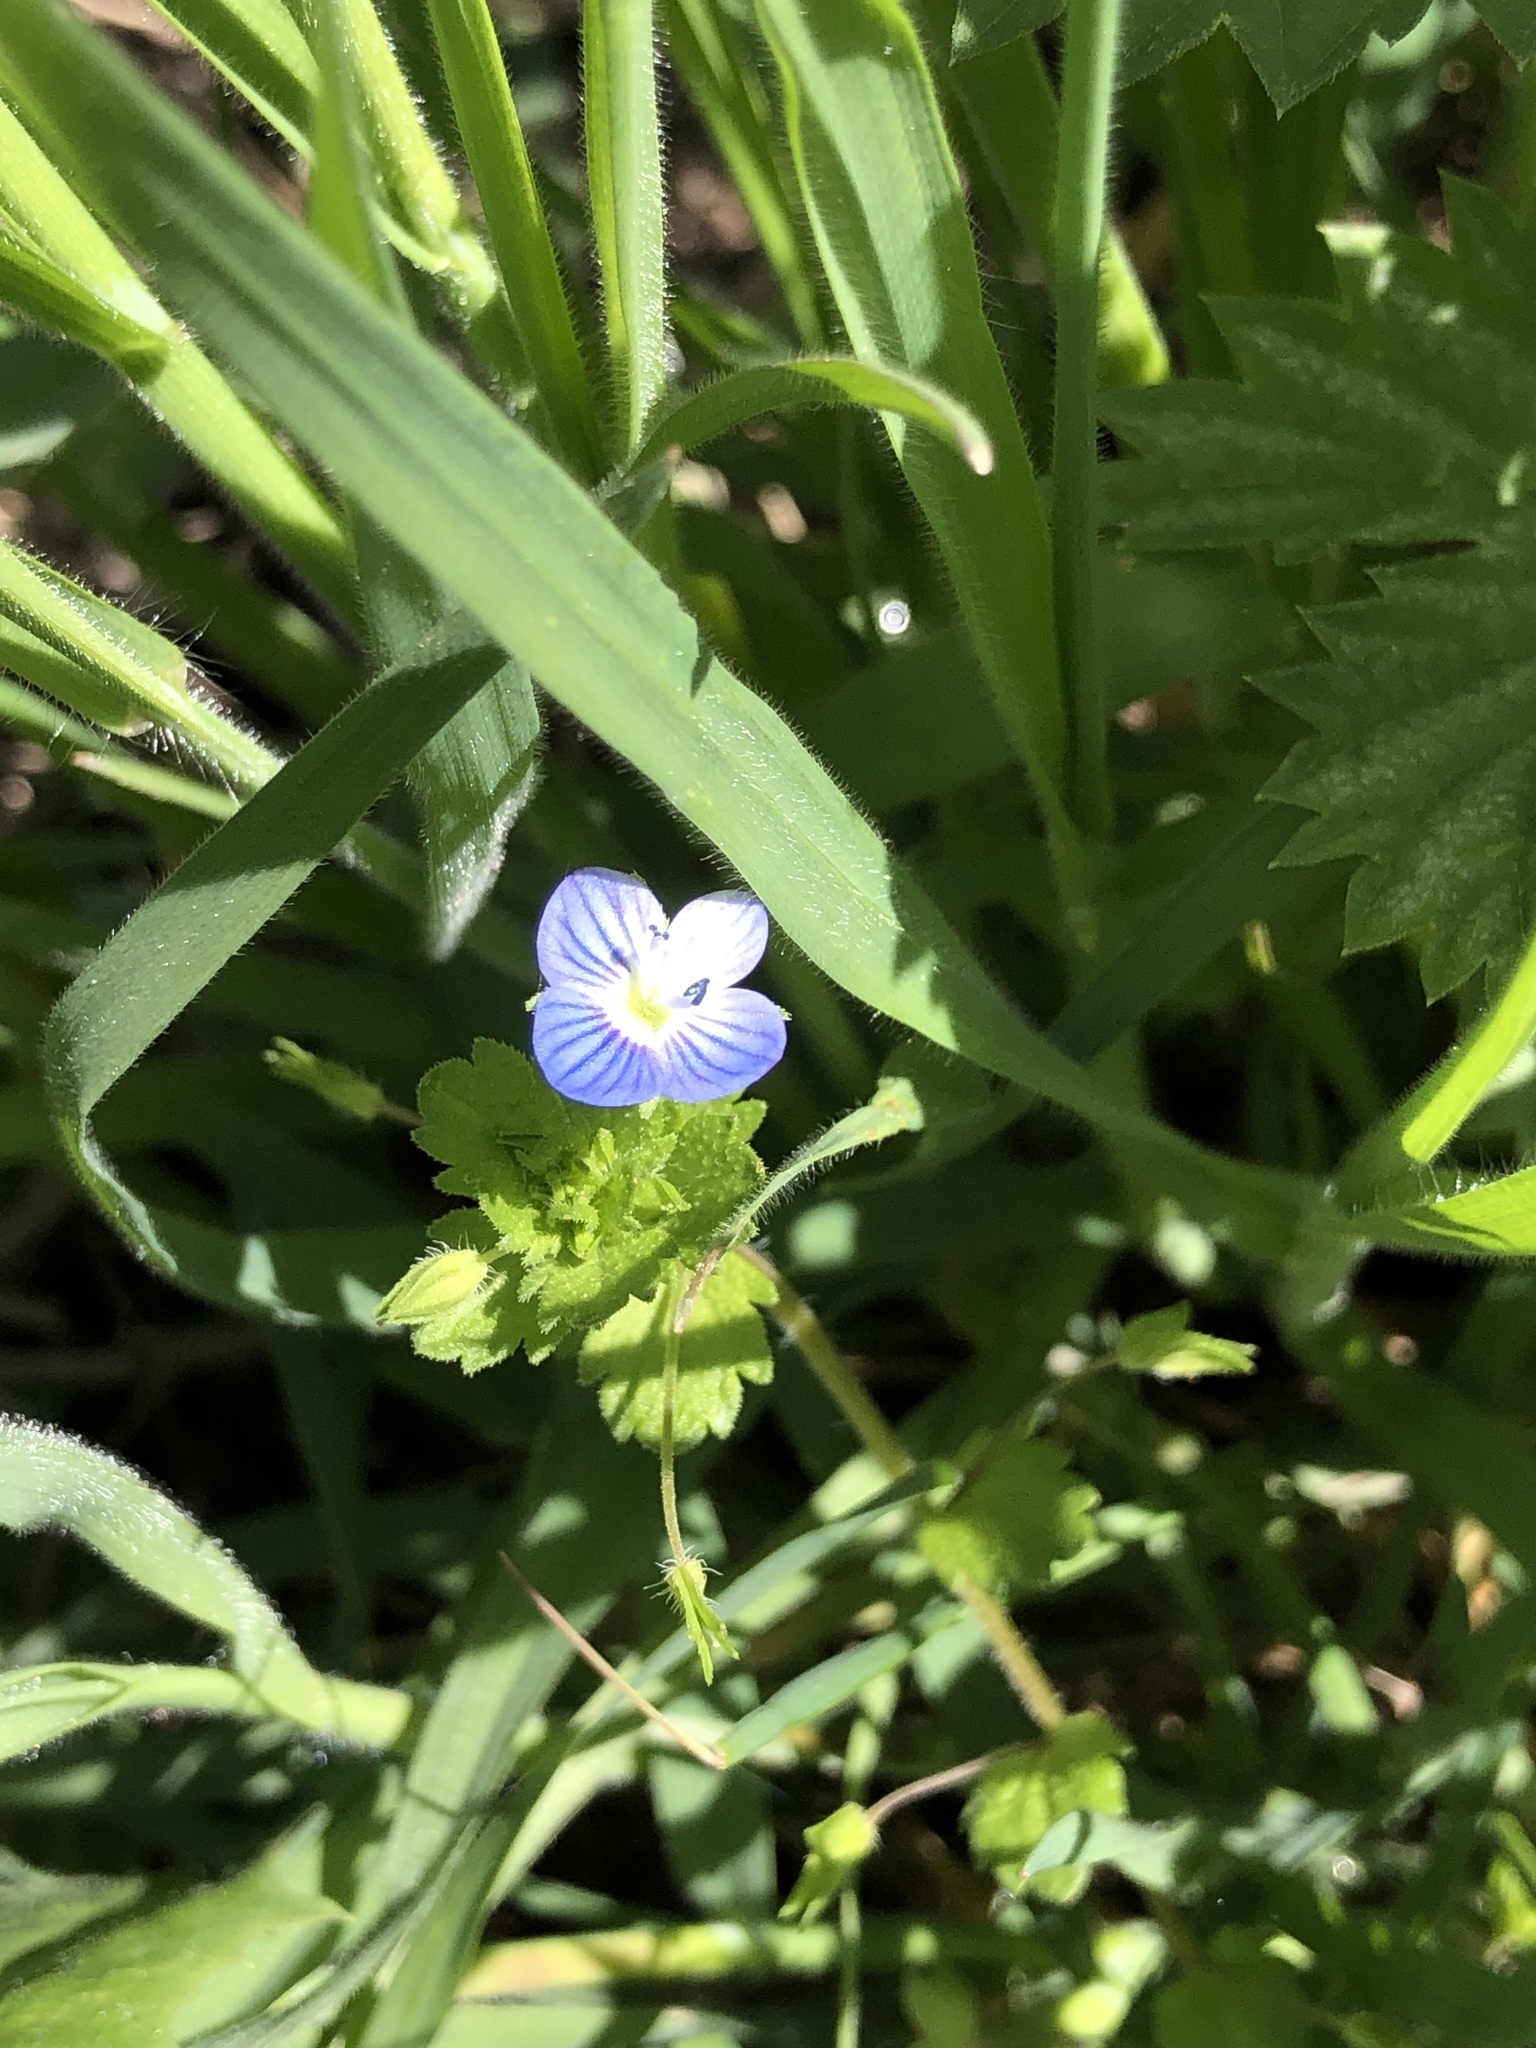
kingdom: Plantae
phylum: Tracheophyta
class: Magnoliopsida
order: Lamiales
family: Plantaginaceae
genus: Veronica
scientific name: Veronica persica
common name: Common field-speedwell
